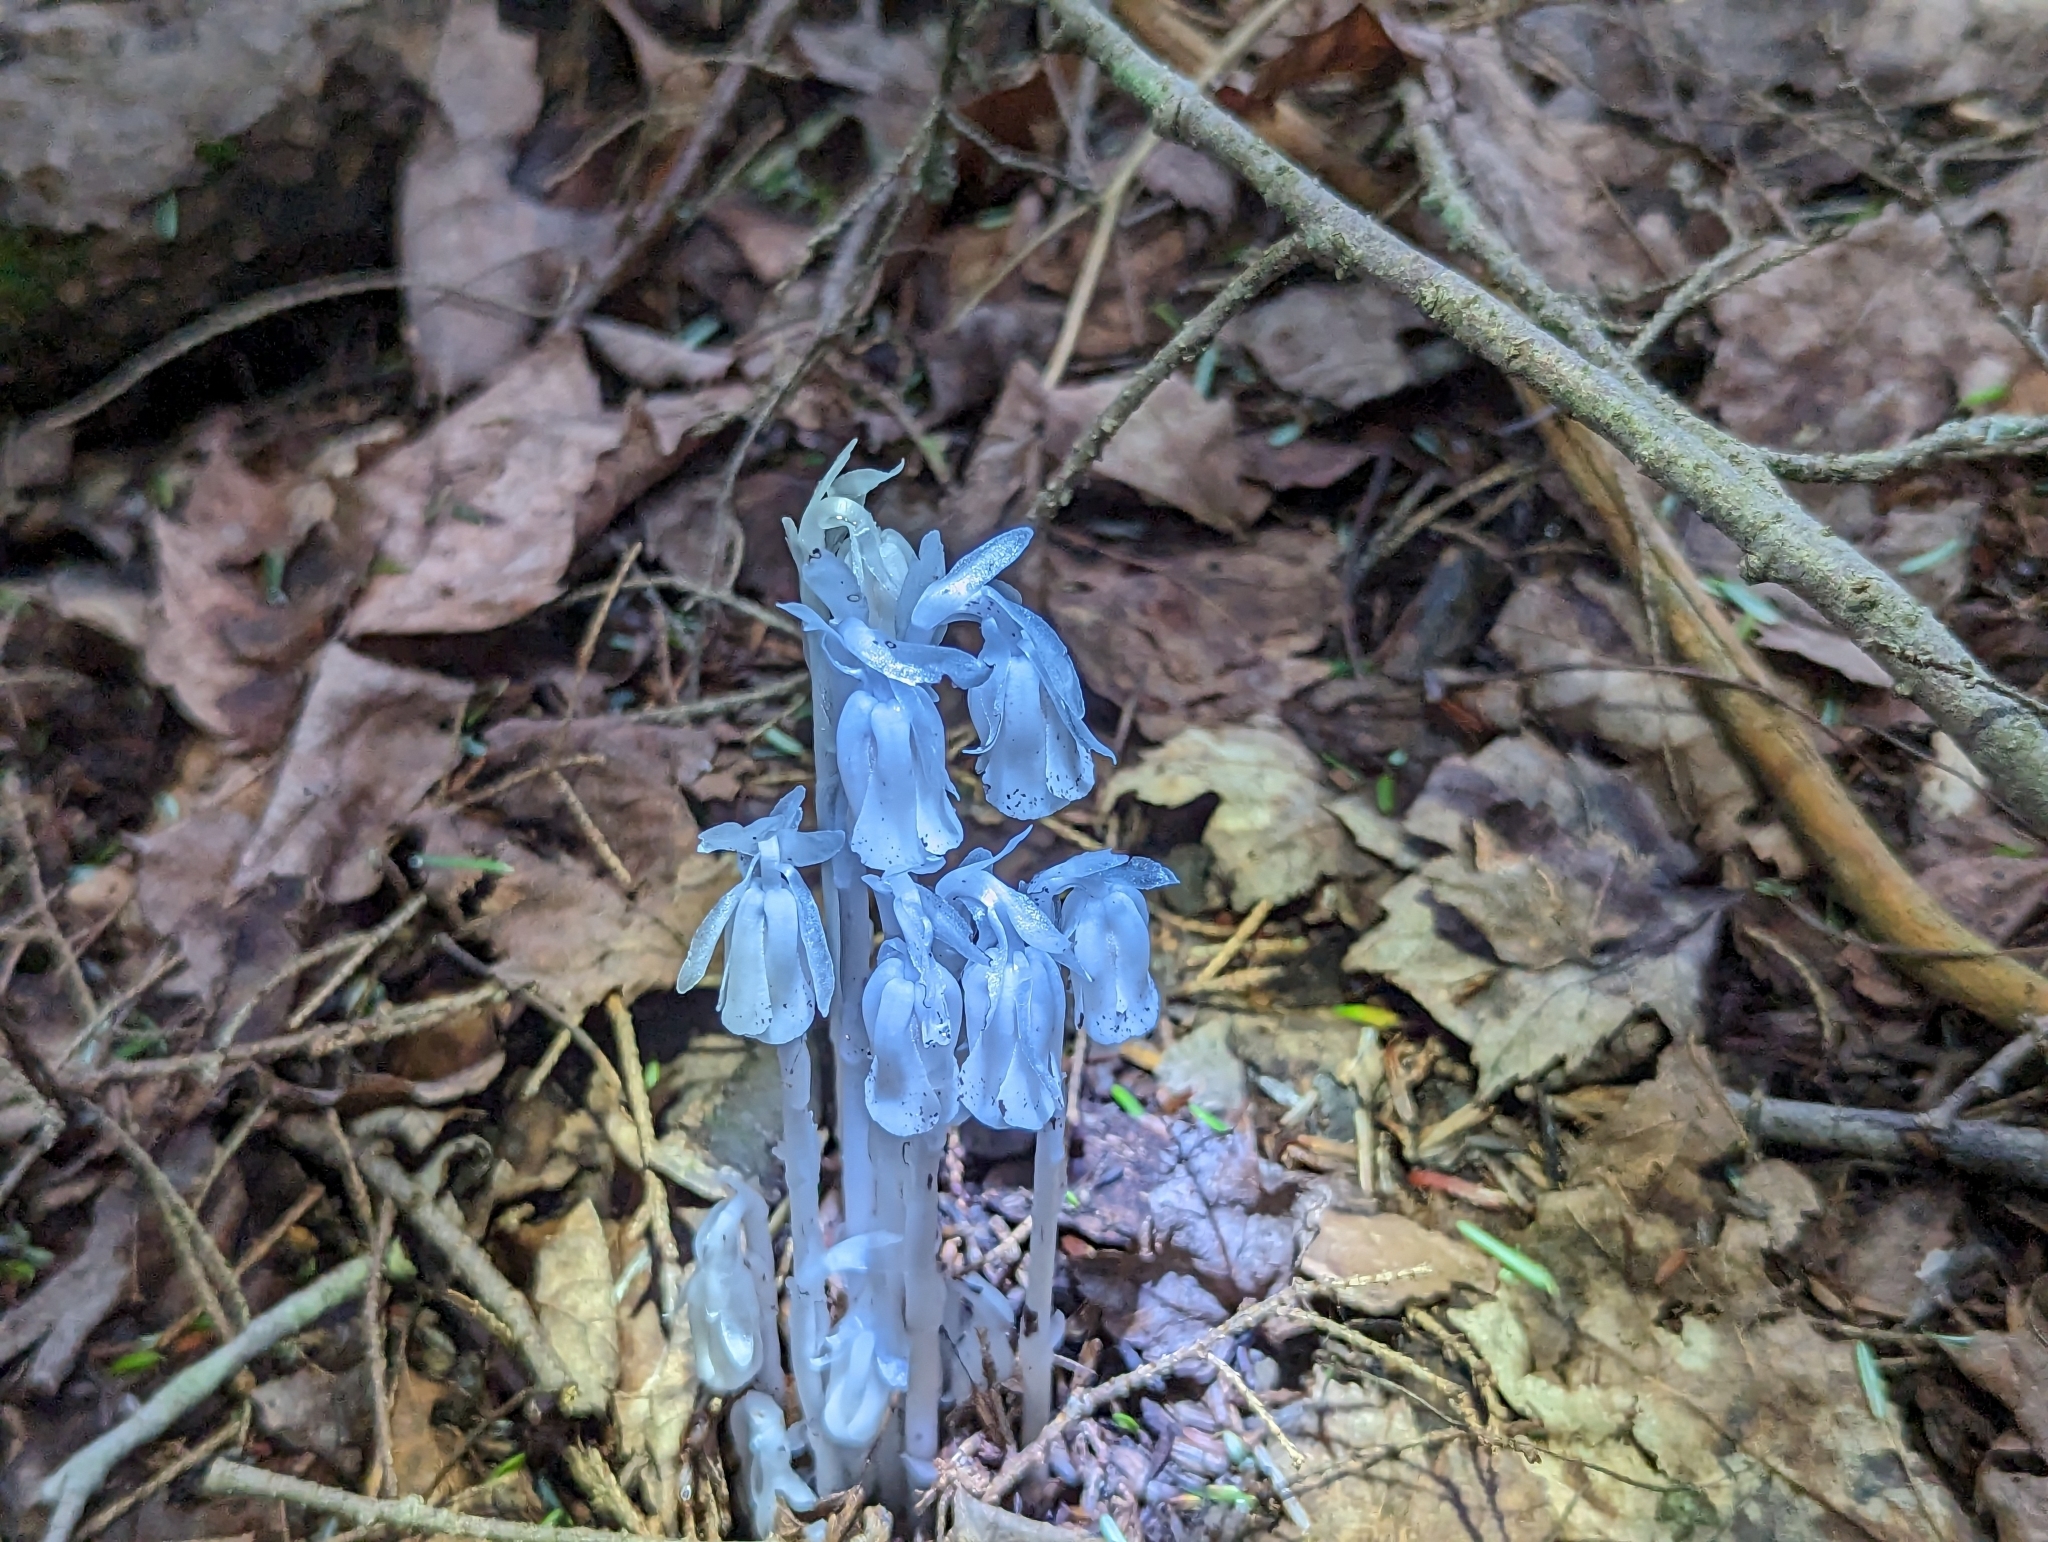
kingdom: Plantae
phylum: Tracheophyta
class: Magnoliopsida
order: Ericales
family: Ericaceae
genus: Monotropa
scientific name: Monotropa uniflora
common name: Convulsion root
